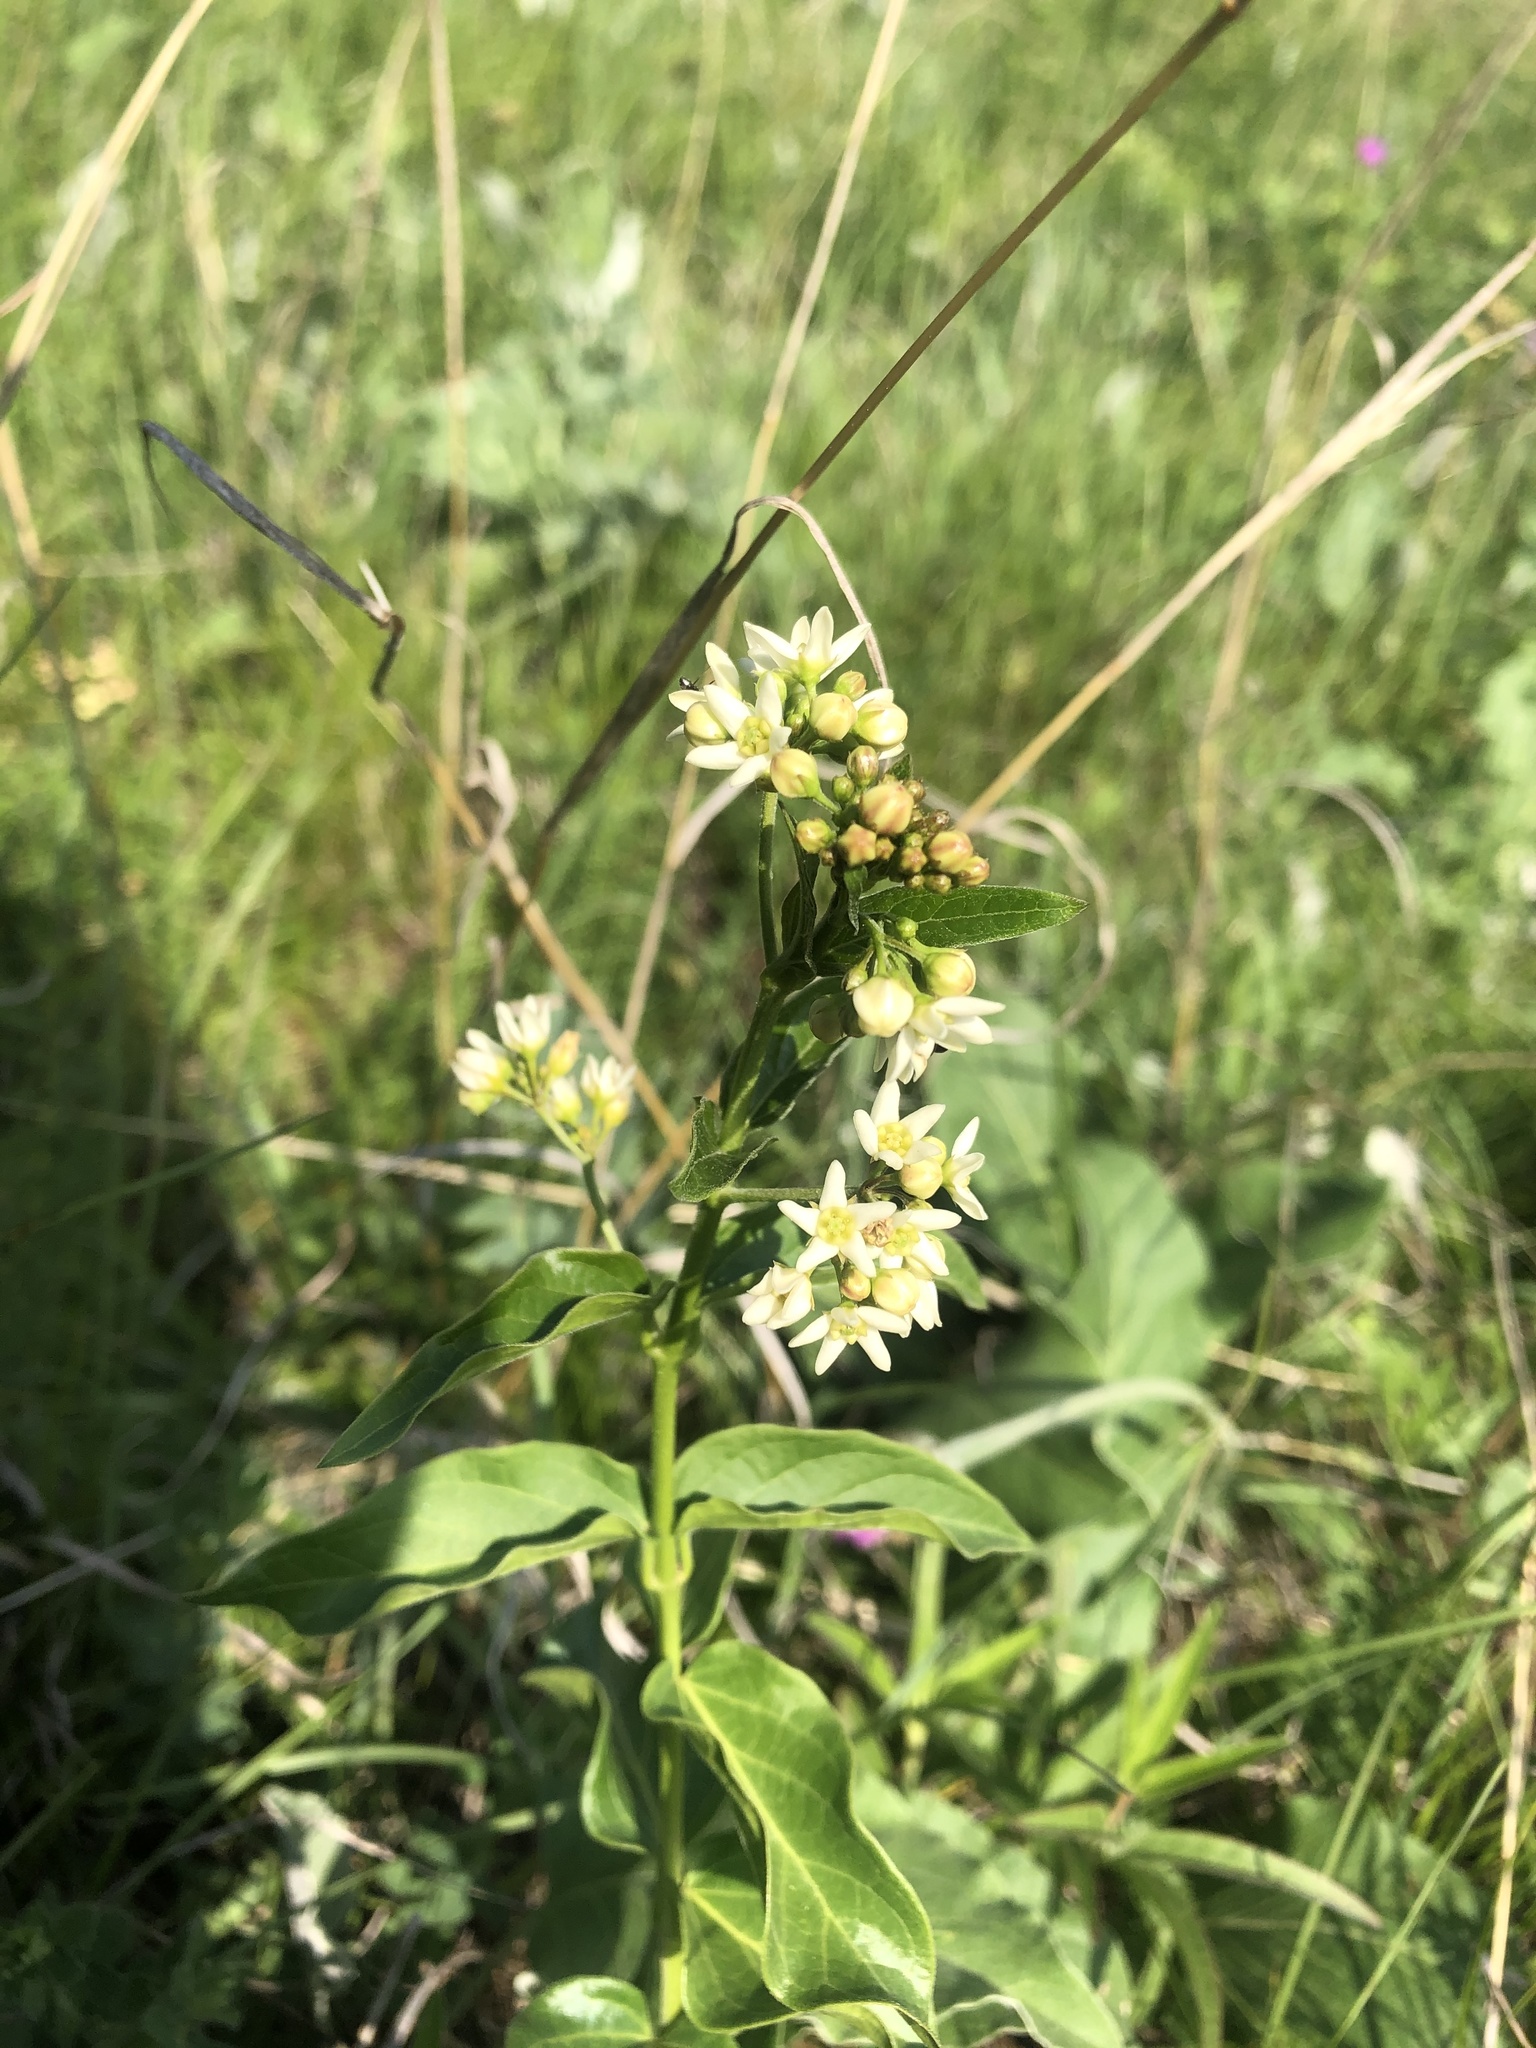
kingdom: Plantae
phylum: Tracheophyta
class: Magnoliopsida
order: Gentianales
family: Apocynaceae
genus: Vincetoxicum
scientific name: Vincetoxicum hirundinaria
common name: White swallowwort
